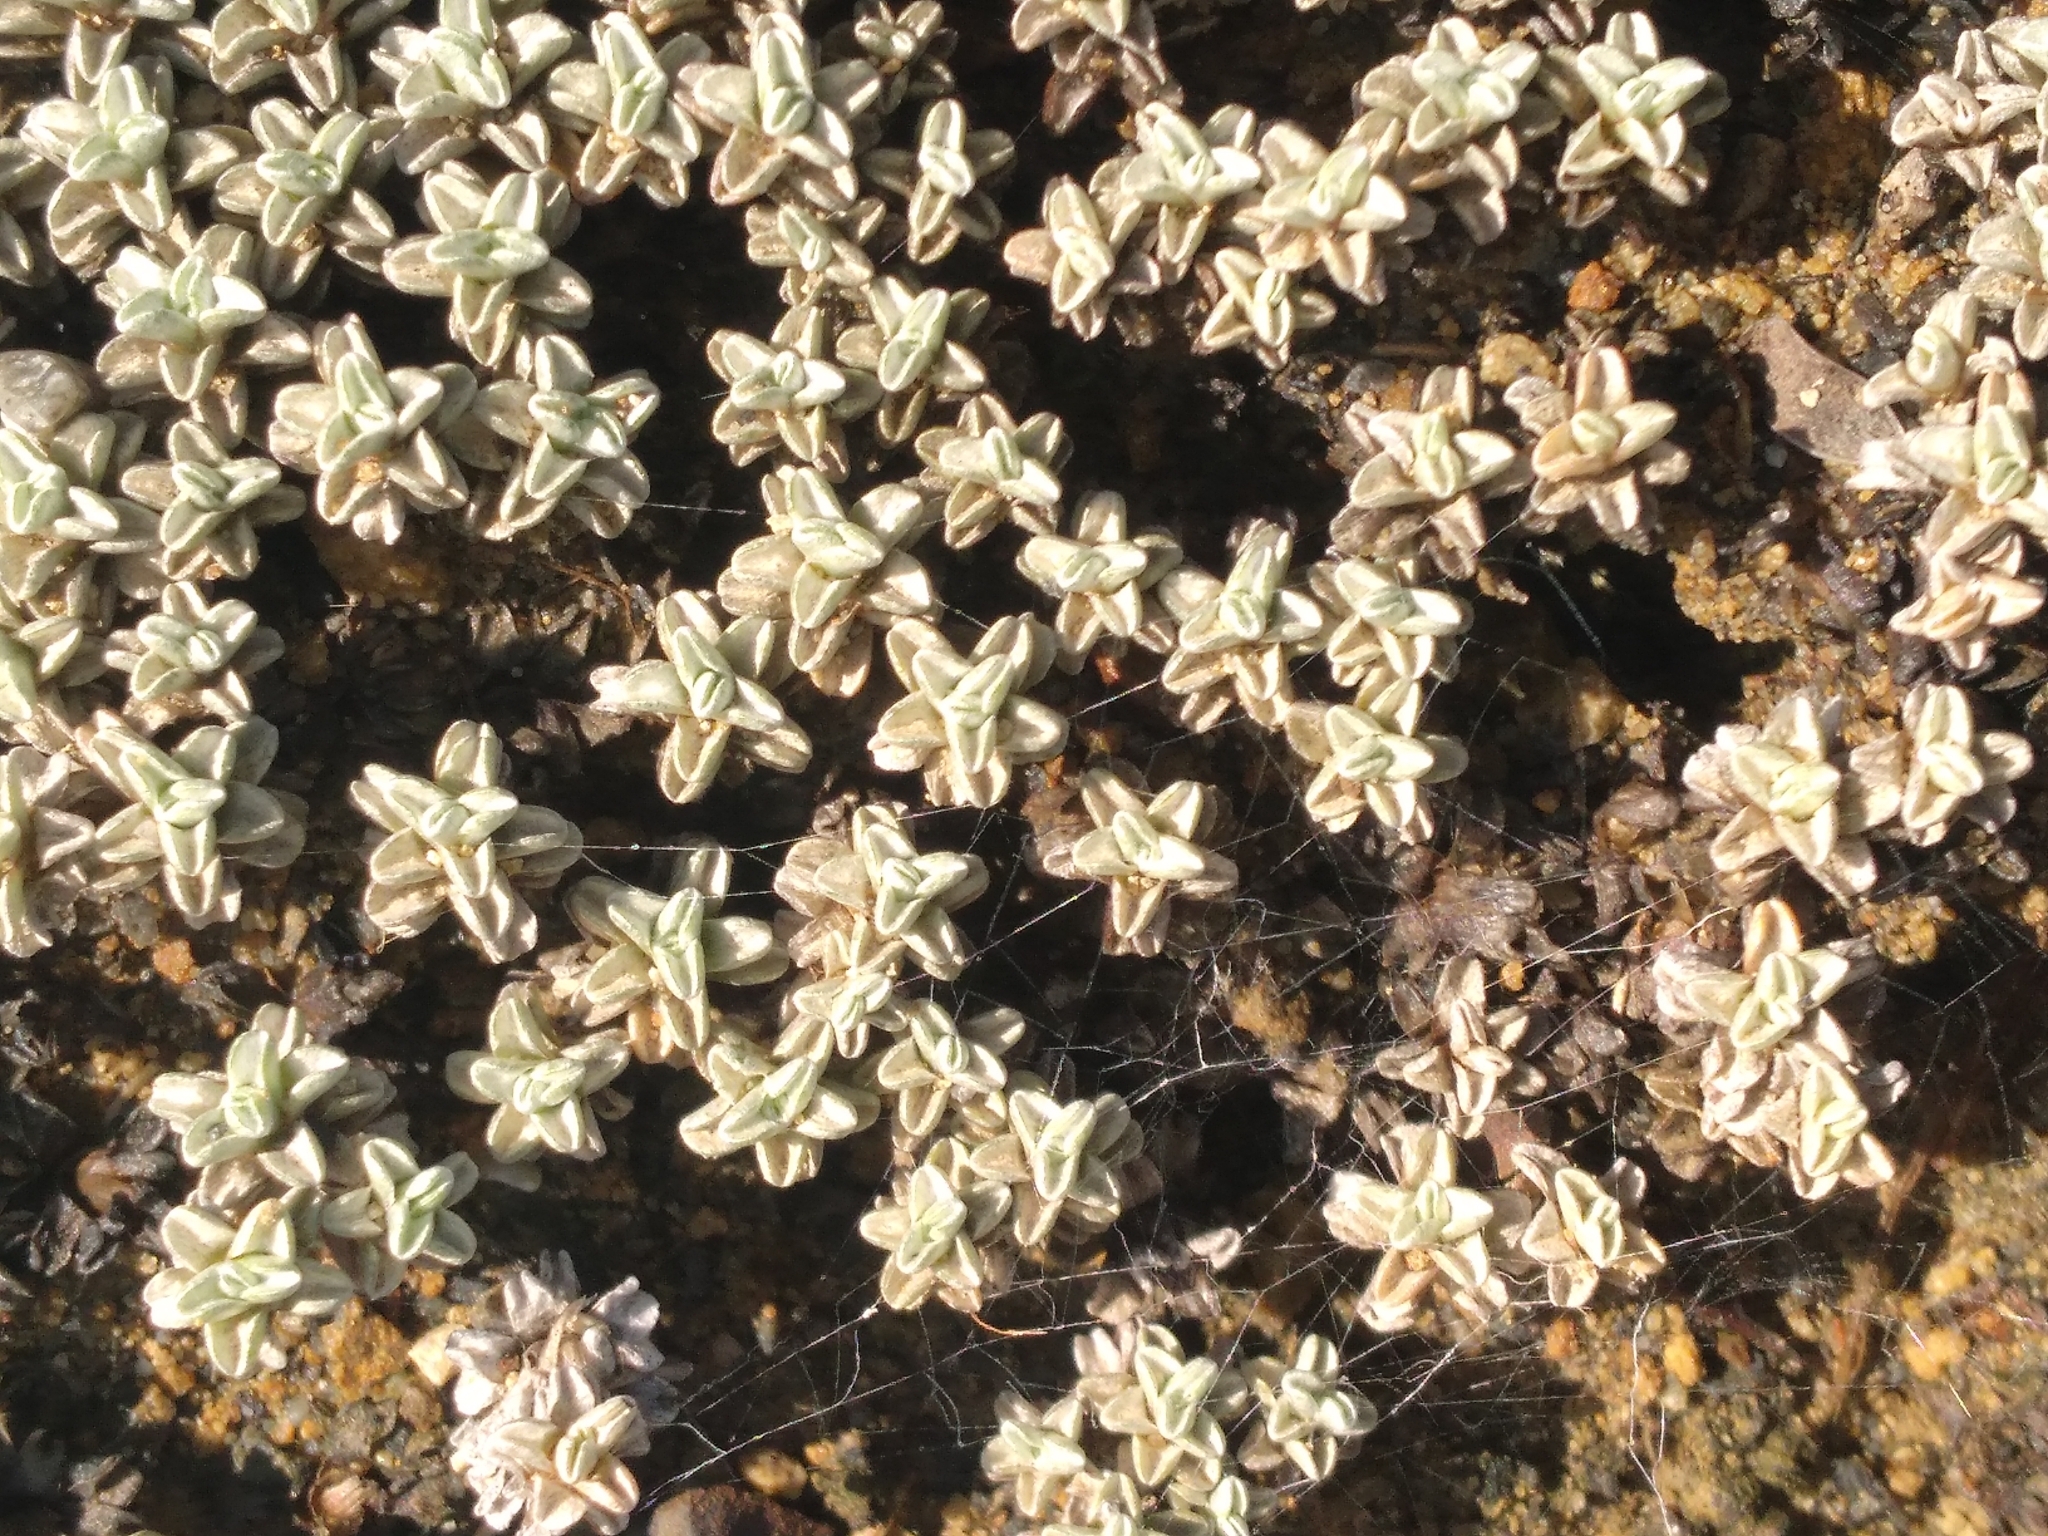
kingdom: Plantae
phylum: Tracheophyta
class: Magnoliopsida
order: Asterales
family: Asteraceae
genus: Raoulia
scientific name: Raoulia hookeri
